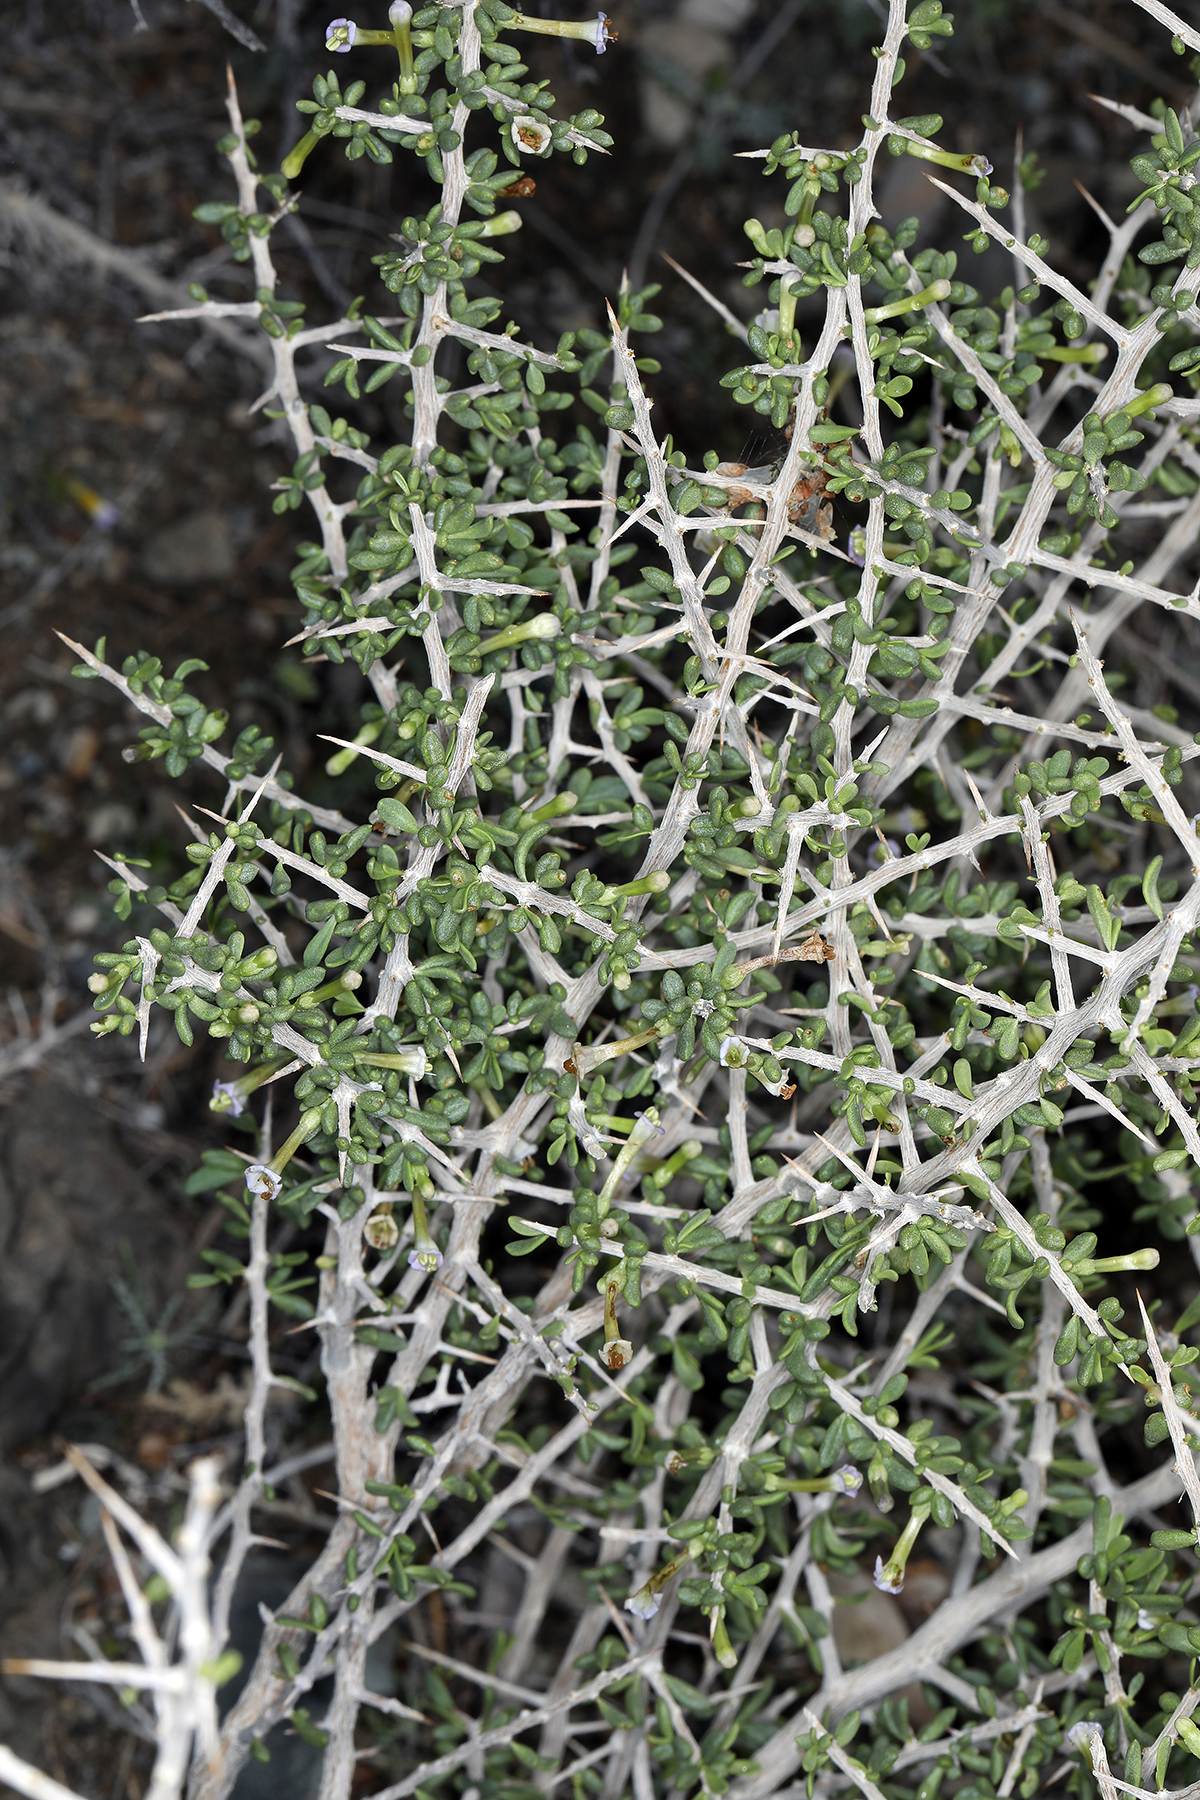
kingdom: Plantae
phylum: Tracheophyta
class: Magnoliopsida
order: Solanales
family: Solanaceae
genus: Lycium
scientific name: Lycium andersonii
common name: Water-jacket
